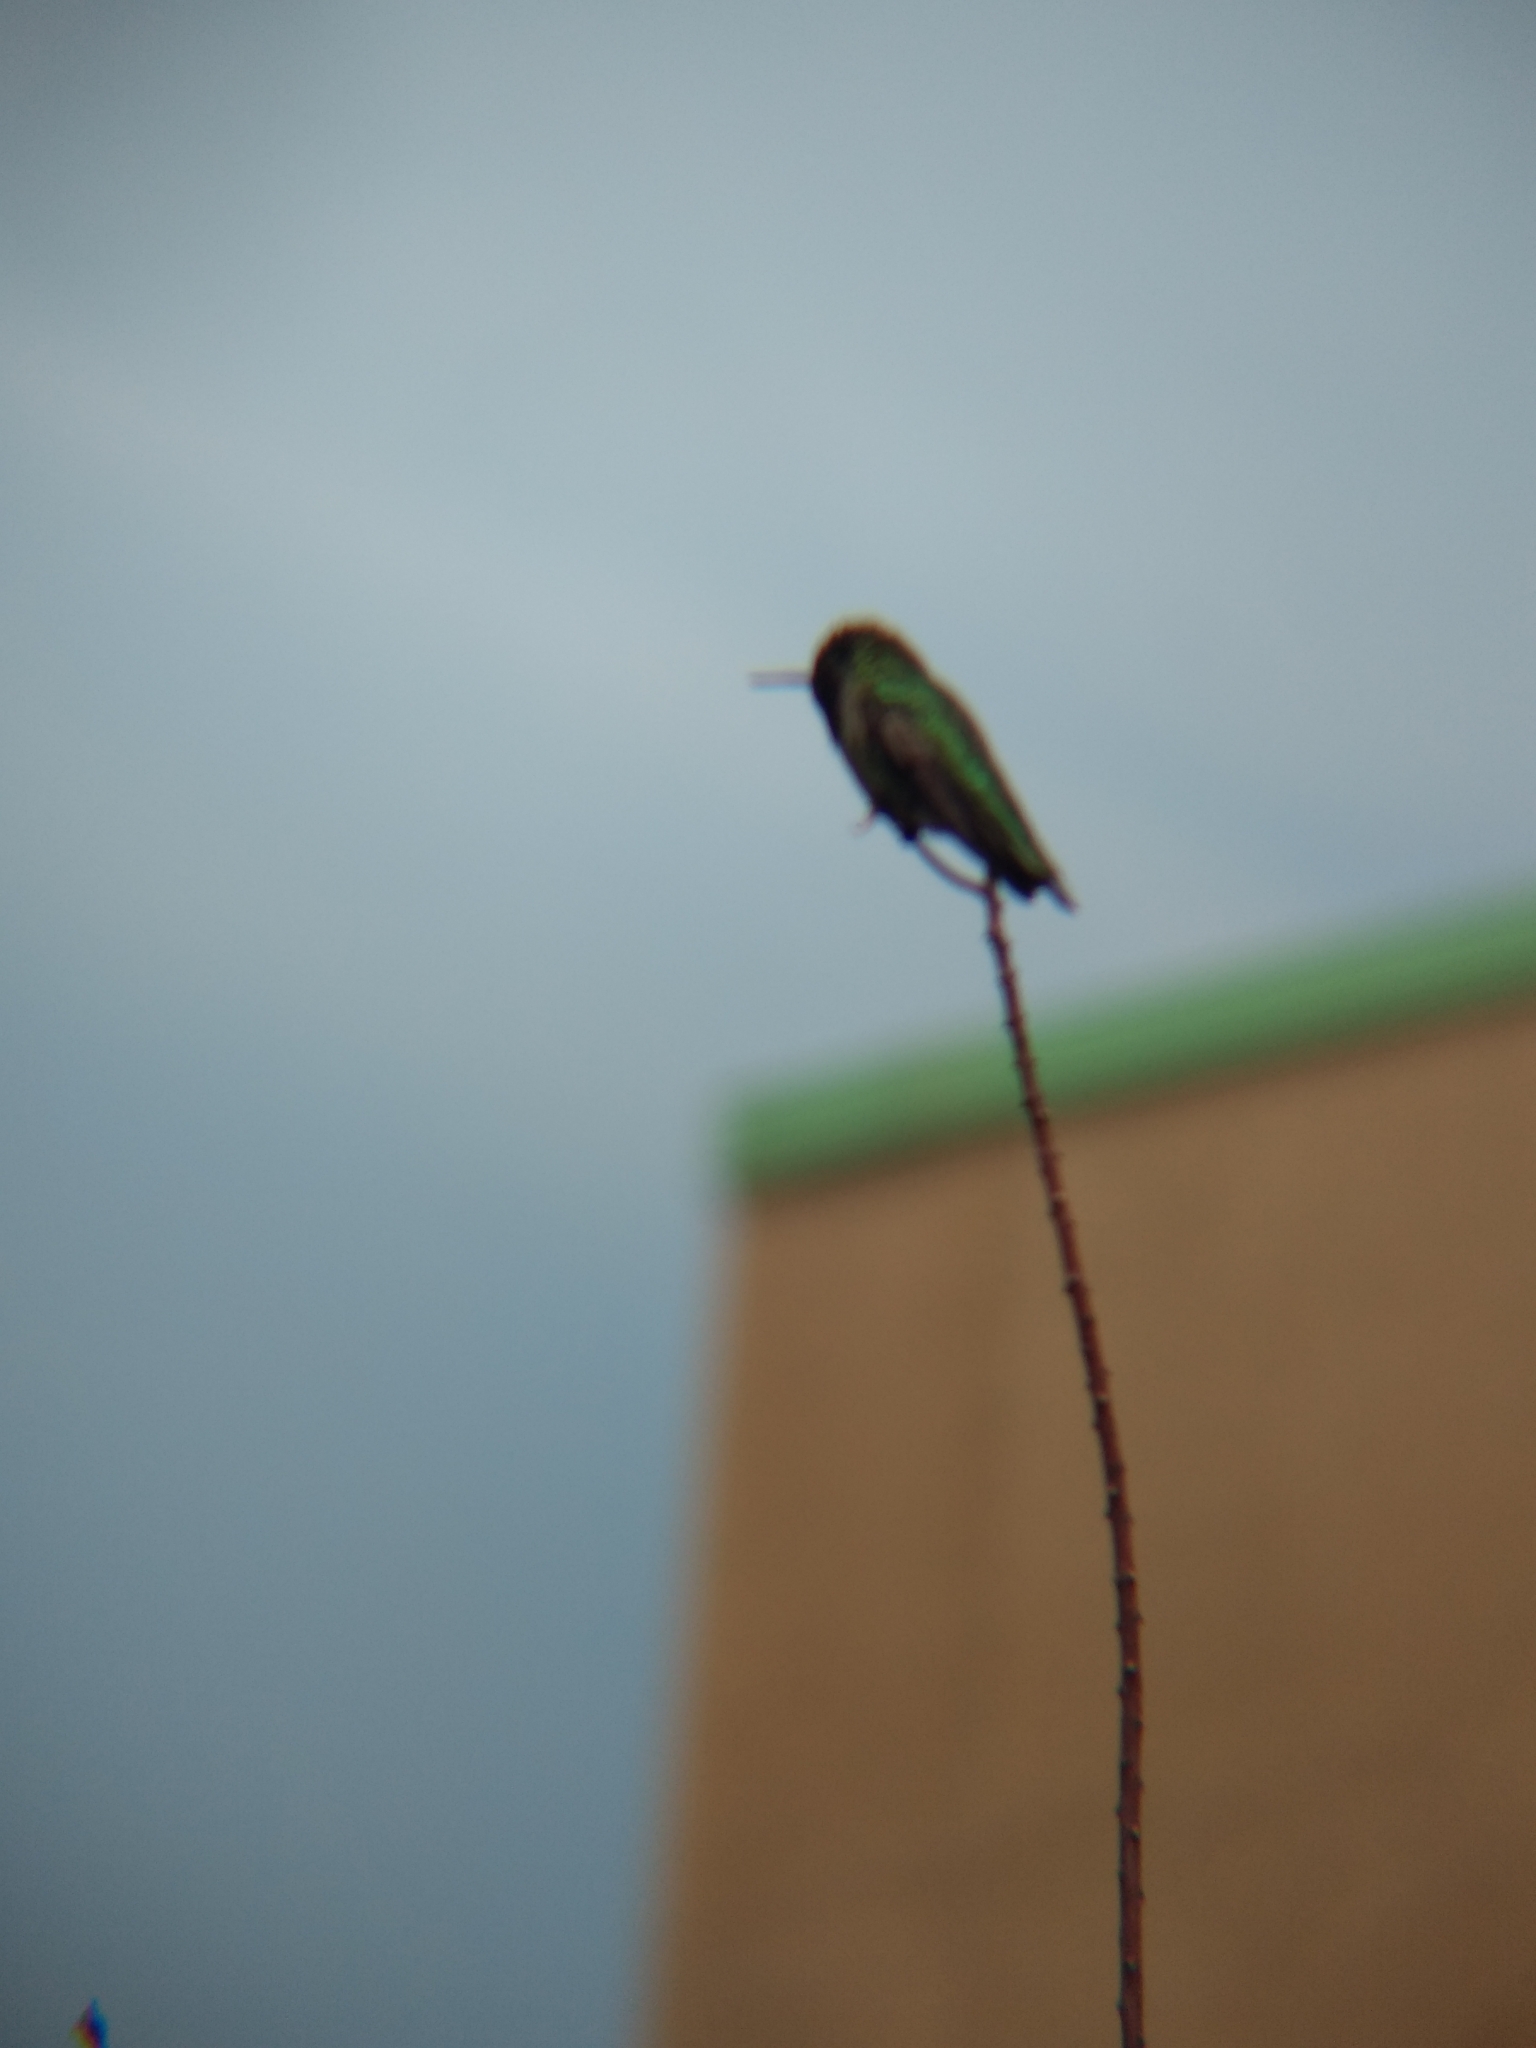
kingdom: Animalia
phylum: Chordata
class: Aves
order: Apodiformes
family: Trochilidae
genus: Calypte
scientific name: Calypte anna
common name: Anna's hummingbird
